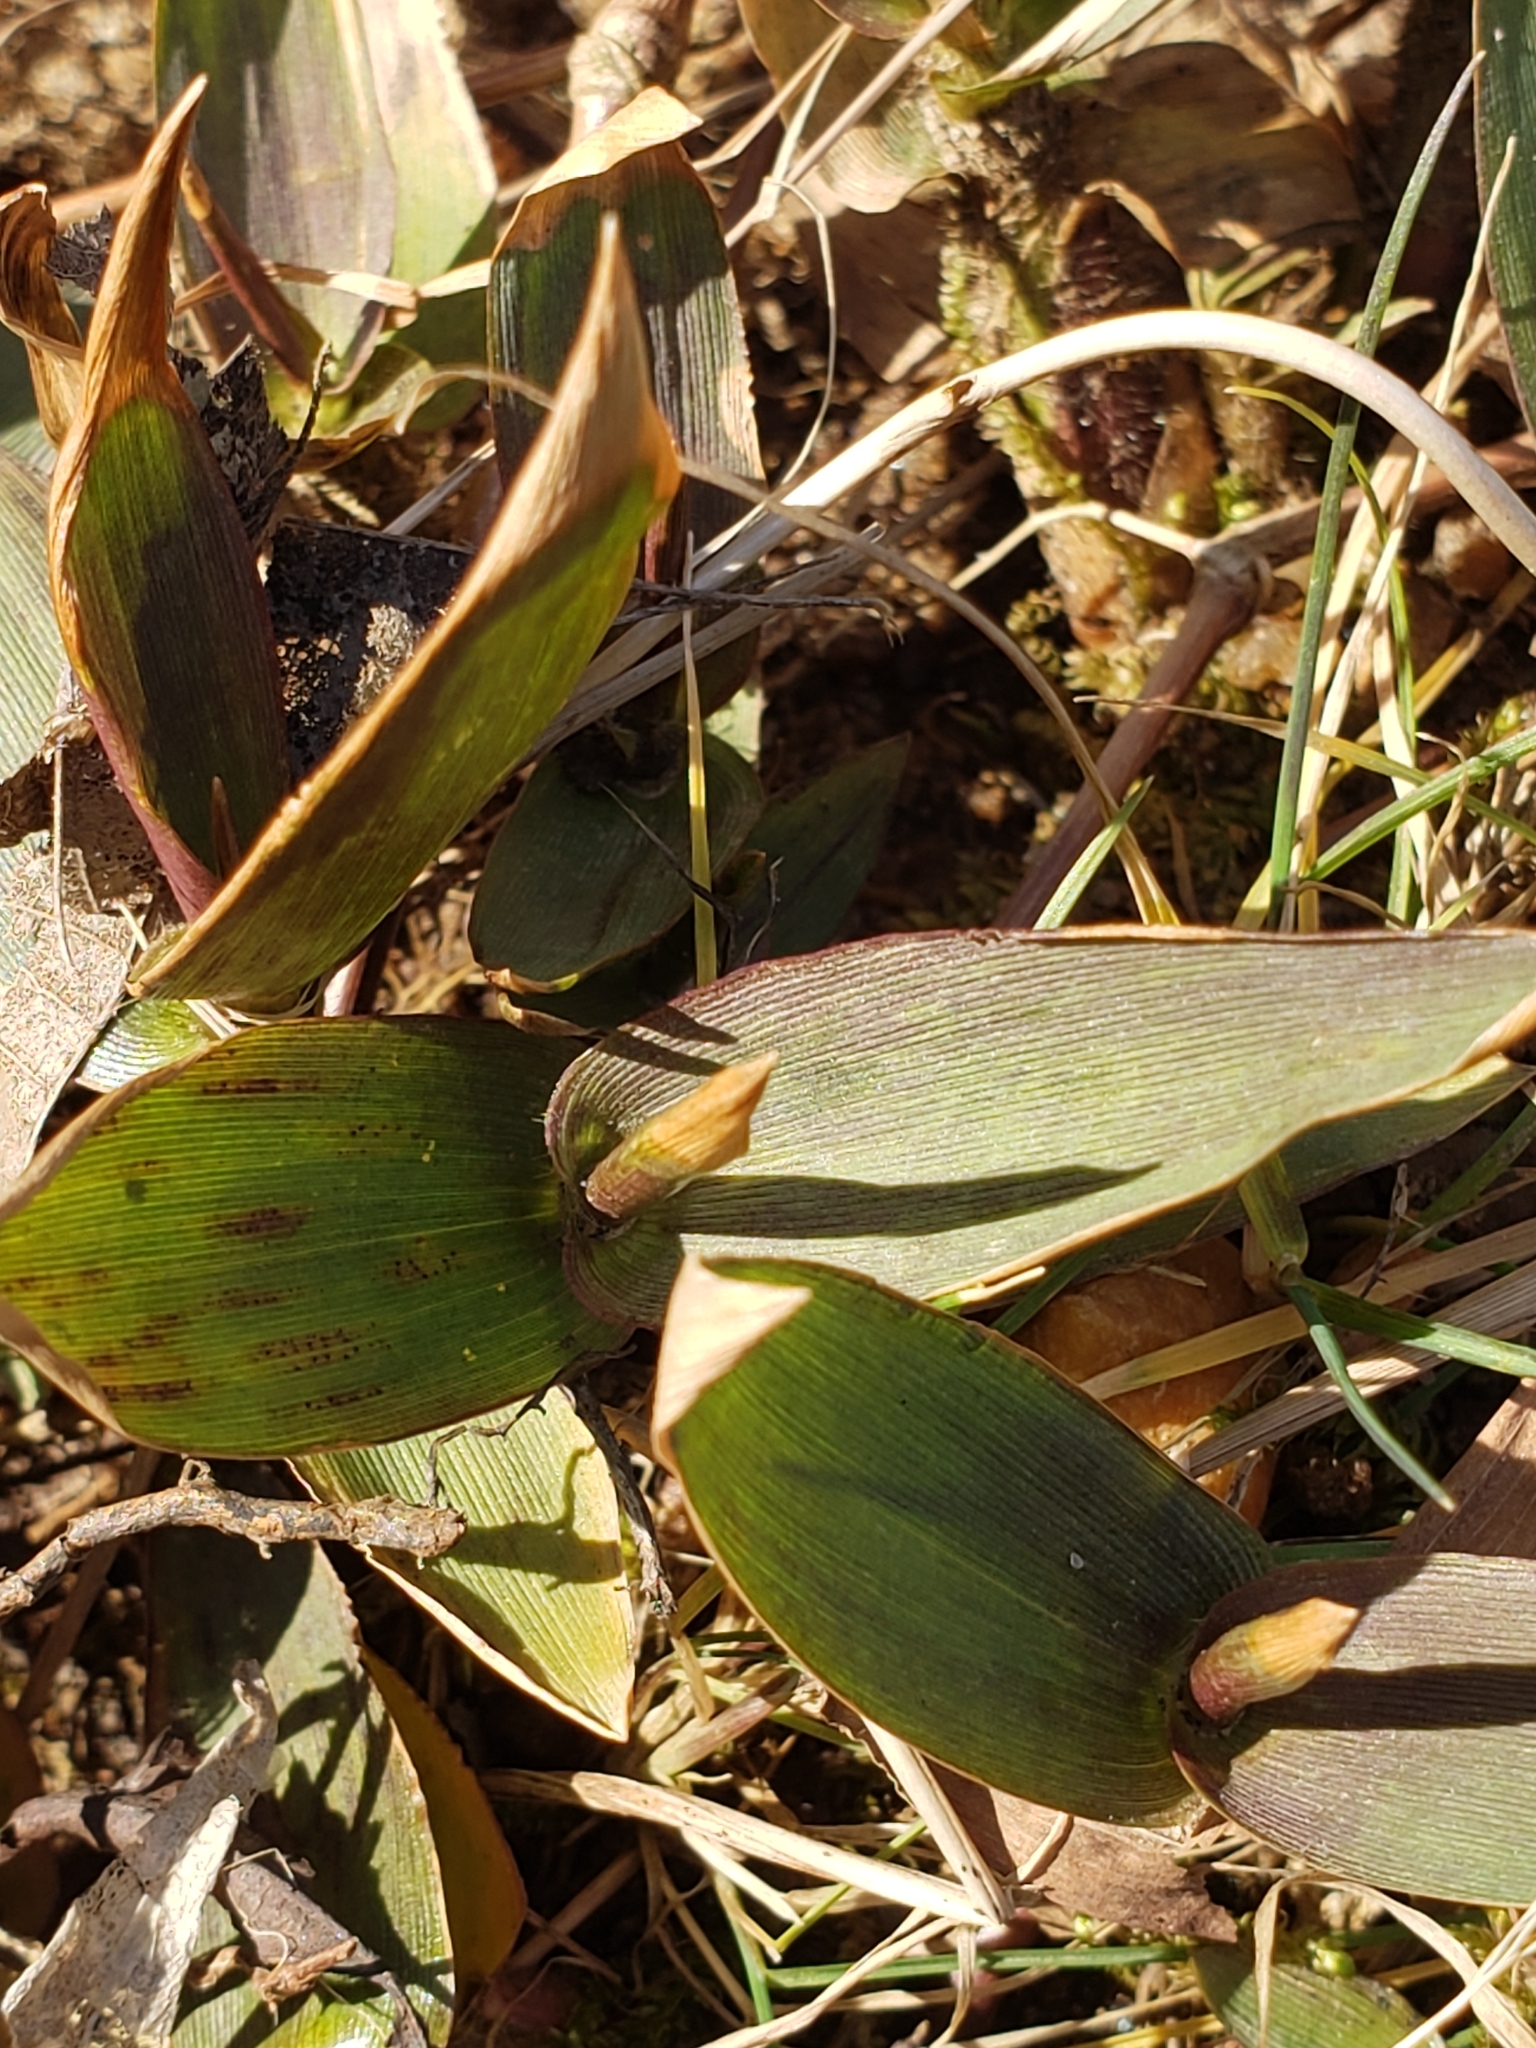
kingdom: Plantae
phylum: Tracheophyta
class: Liliopsida
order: Poales
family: Poaceae
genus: Dichanthelium
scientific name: Dichanthelium clandestinum
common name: Deer-tongue grass
